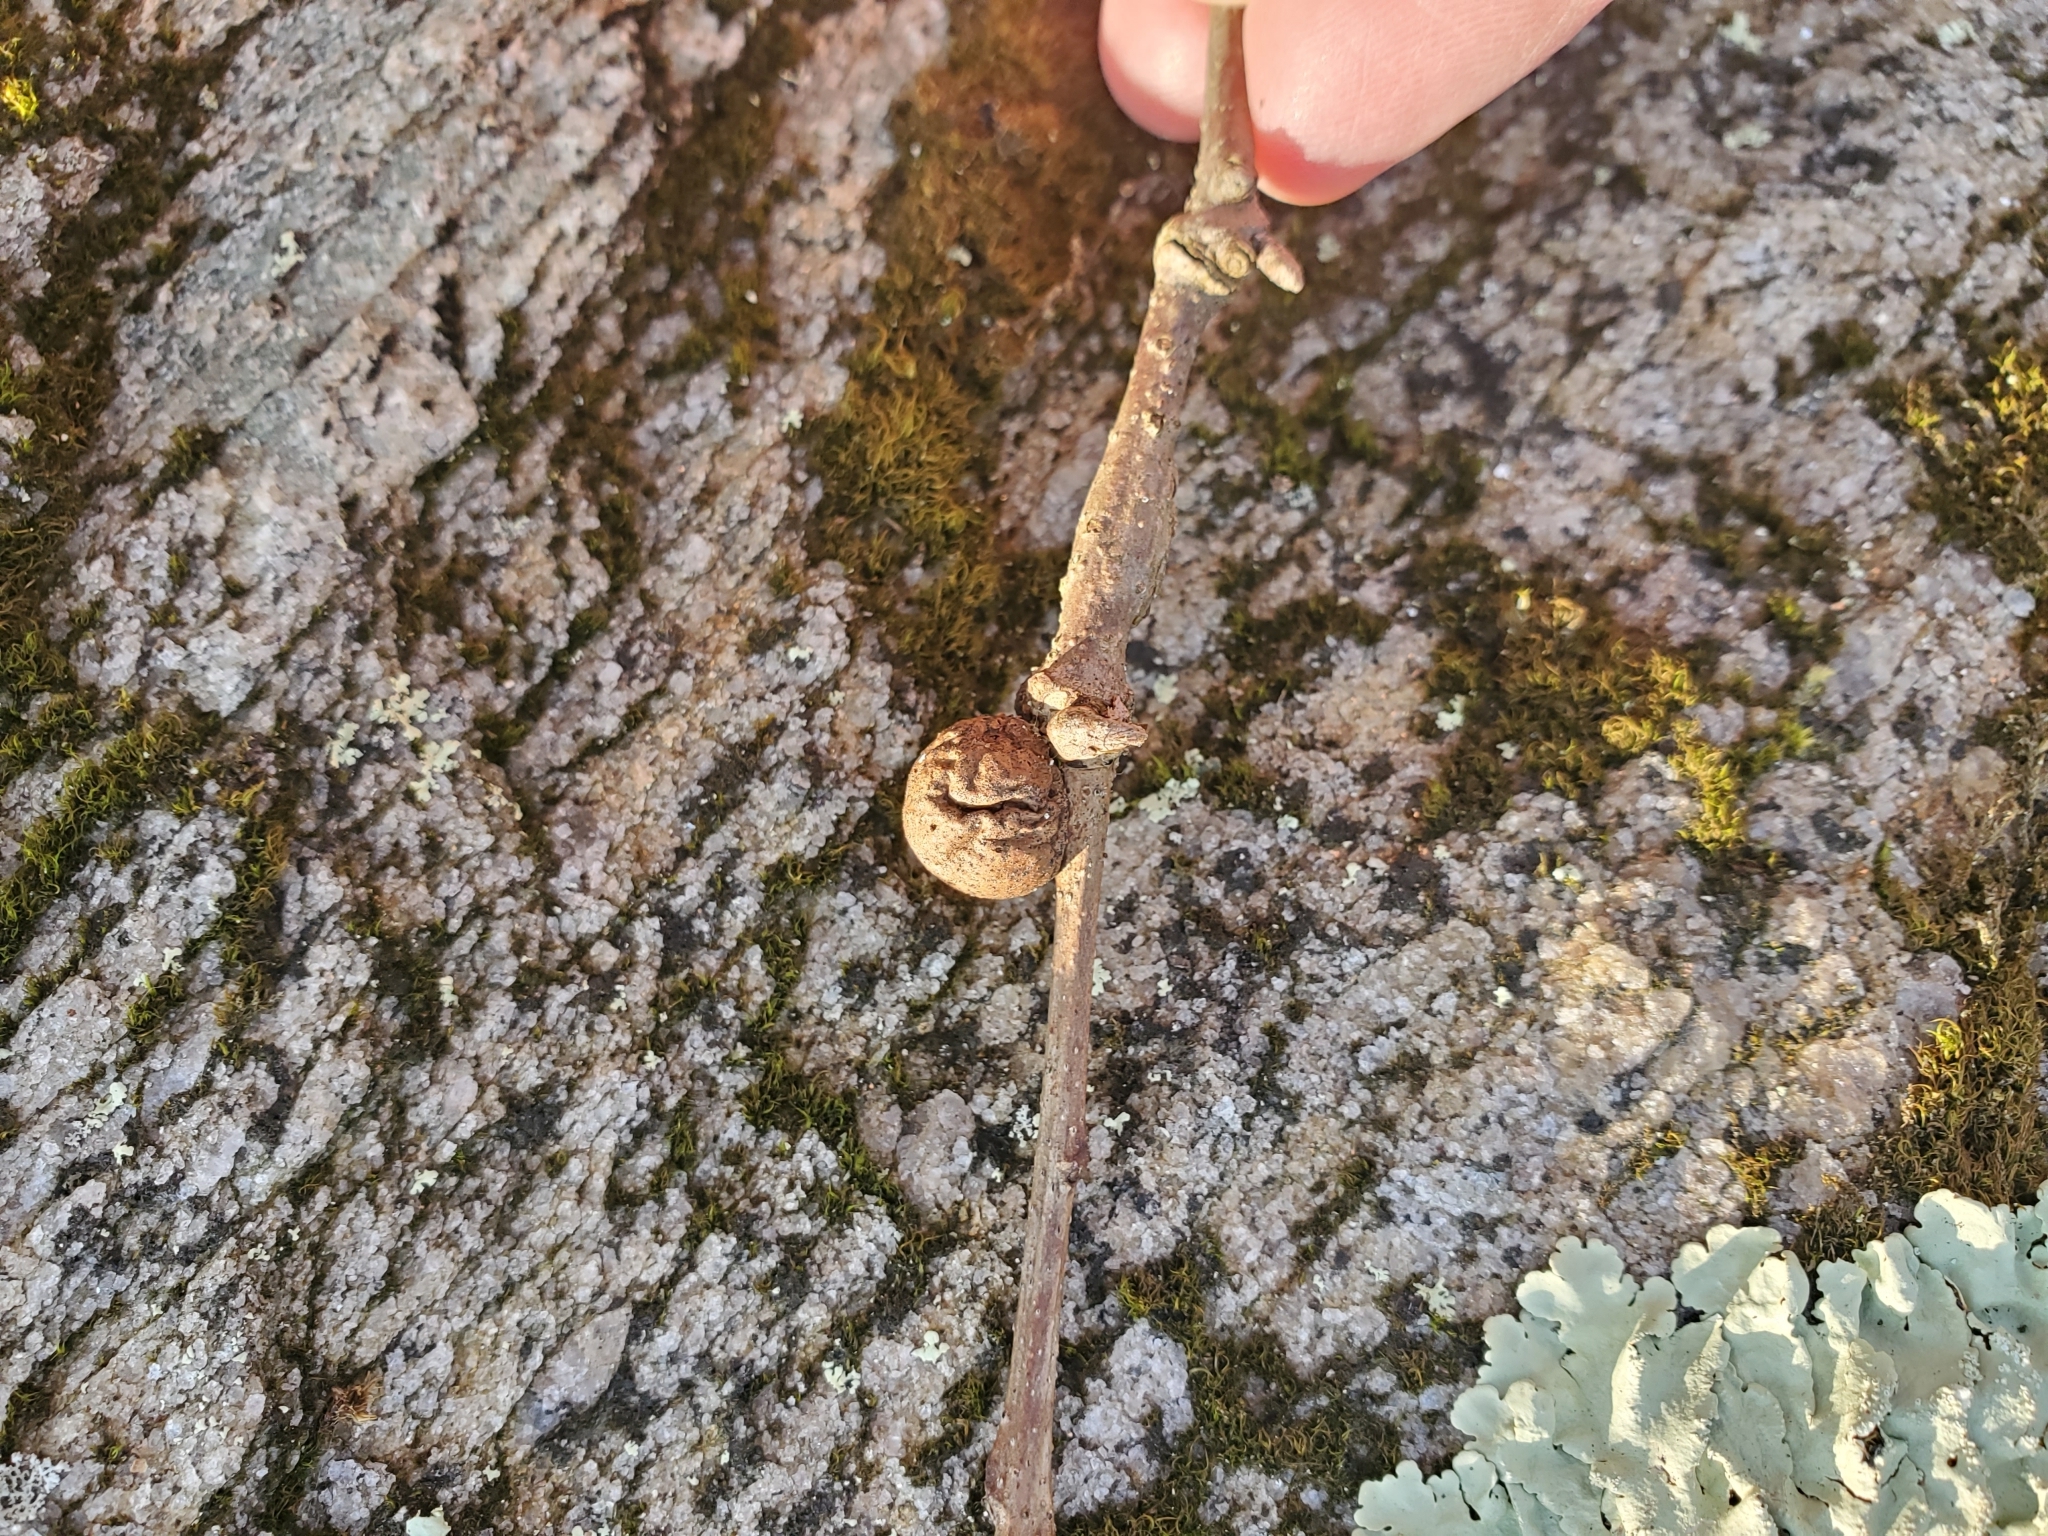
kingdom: Animalia
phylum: Arthropoda
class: Insecta
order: Hymenoptera
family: Cynipidae
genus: Disholcaspis
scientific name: Disholcaspis quercusglobulus
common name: Round bullet gall wasp
